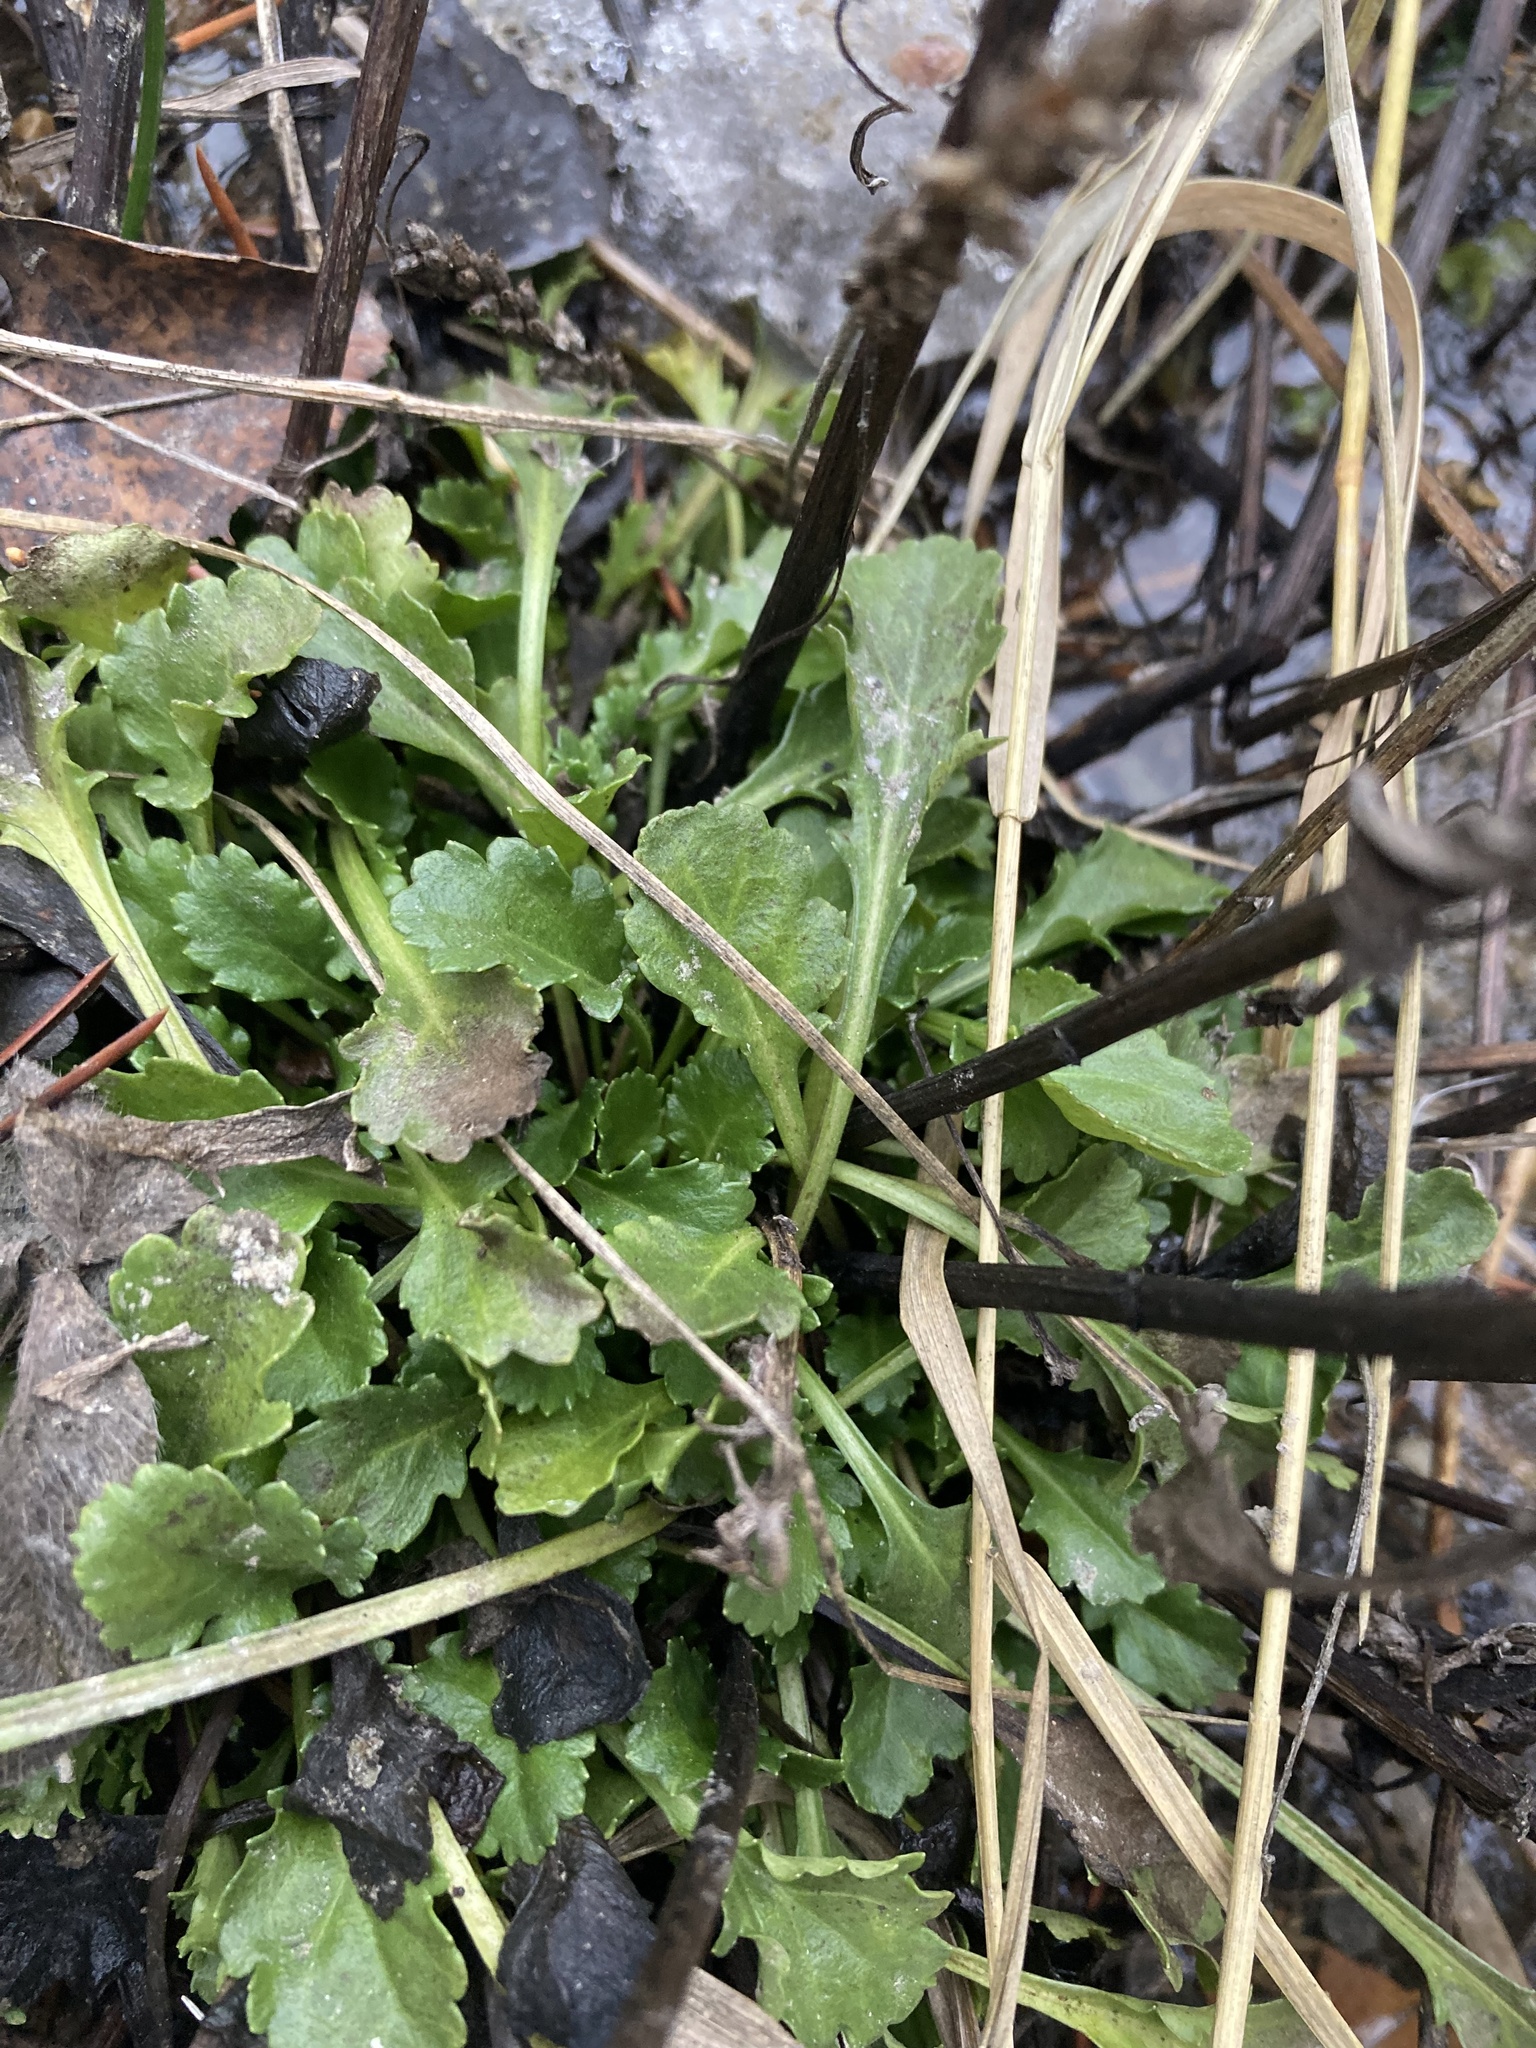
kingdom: Plantae
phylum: Tracheophyta
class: Magnoliopsida
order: Asterales
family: Asteraceae
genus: Leucanthemum
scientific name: Leucanthemum vulgare
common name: Oxeye daisy
